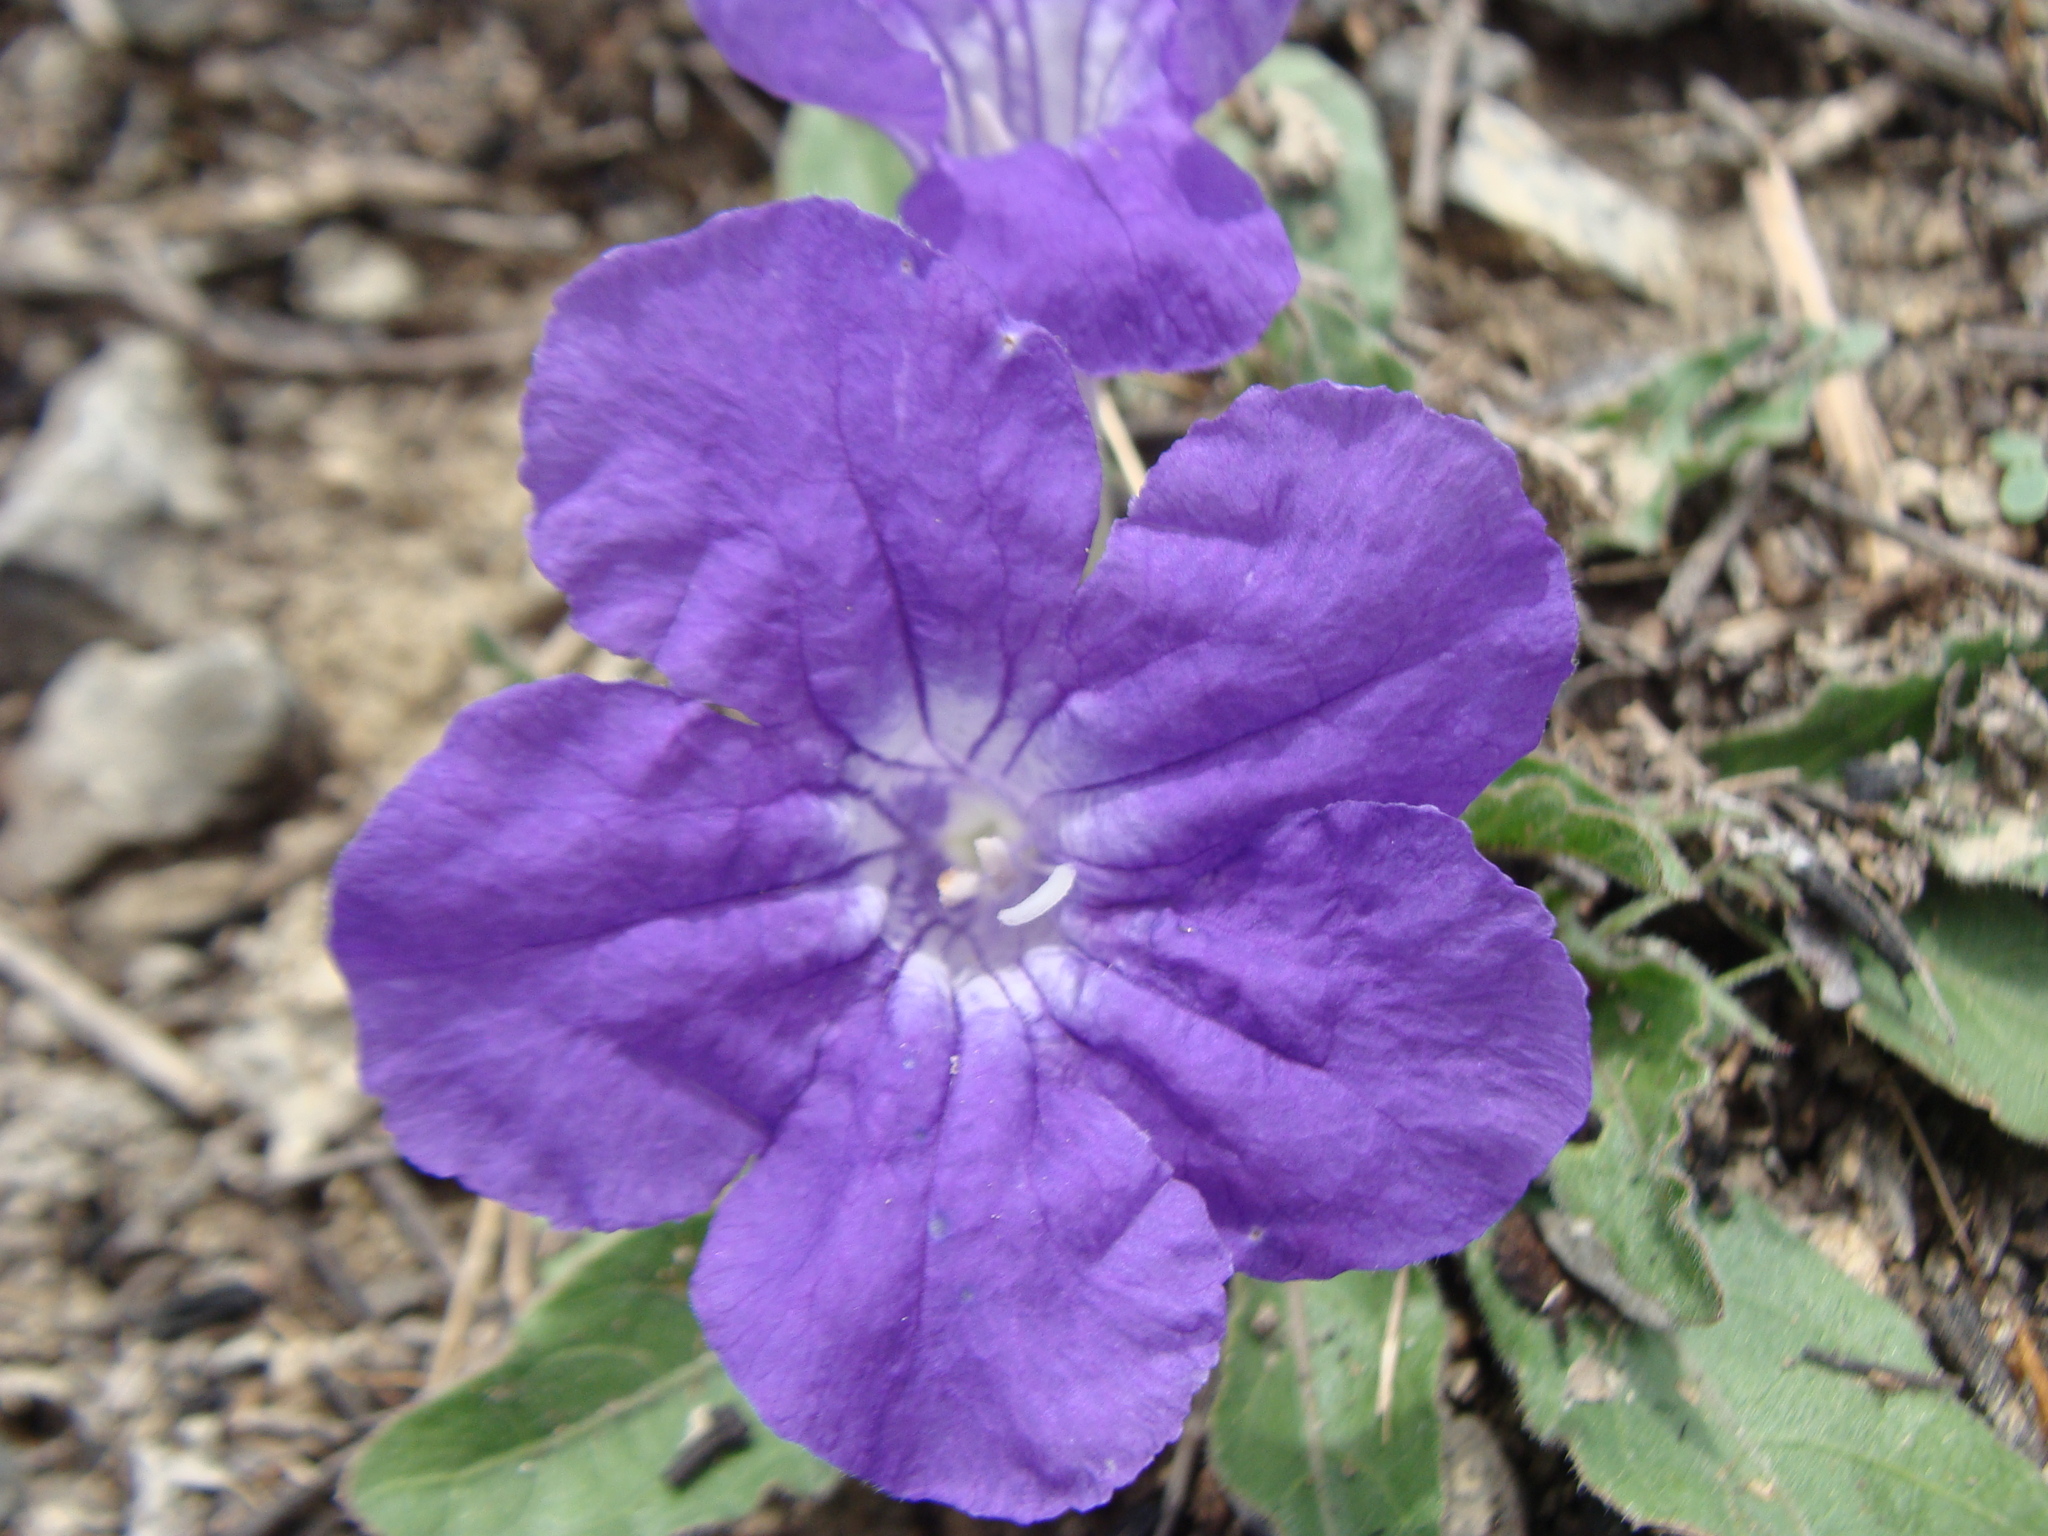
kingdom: Plantae
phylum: Tracheophyta
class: Magnoliopsida
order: Lamiales
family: Acanthaceae
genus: Ruellia
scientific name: Ruellia lactea
